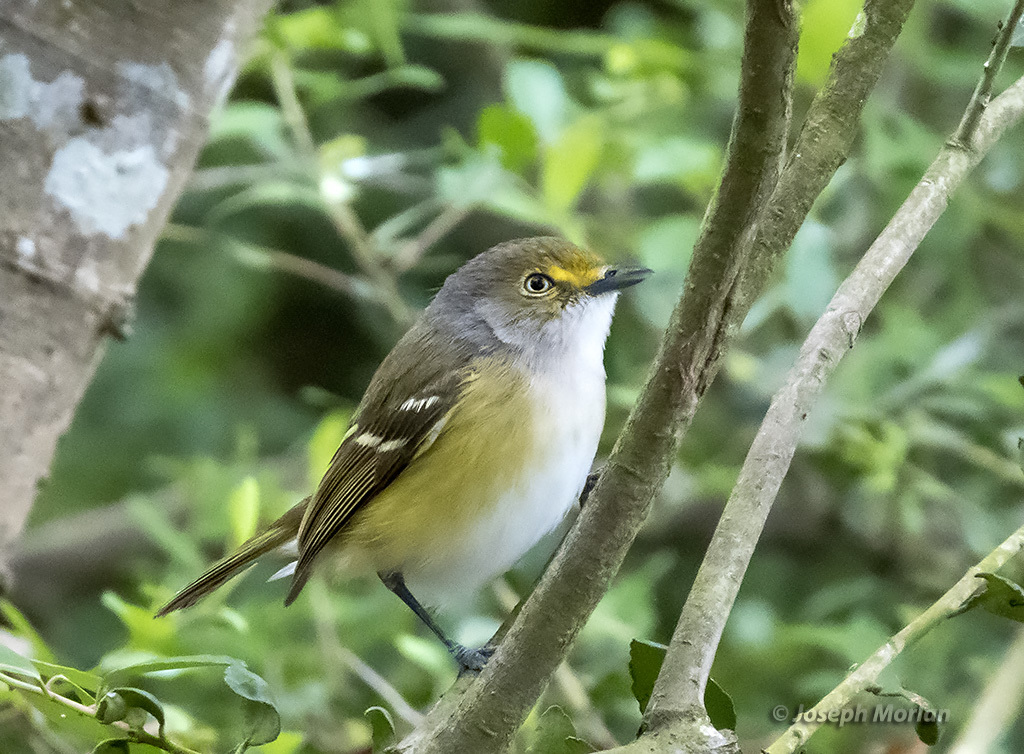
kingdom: Animalia
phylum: Chordata
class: Aves
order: Passeriformes
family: Vireonidae
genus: Vireo
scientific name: Vireo griseus
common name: White-eyed vireo
